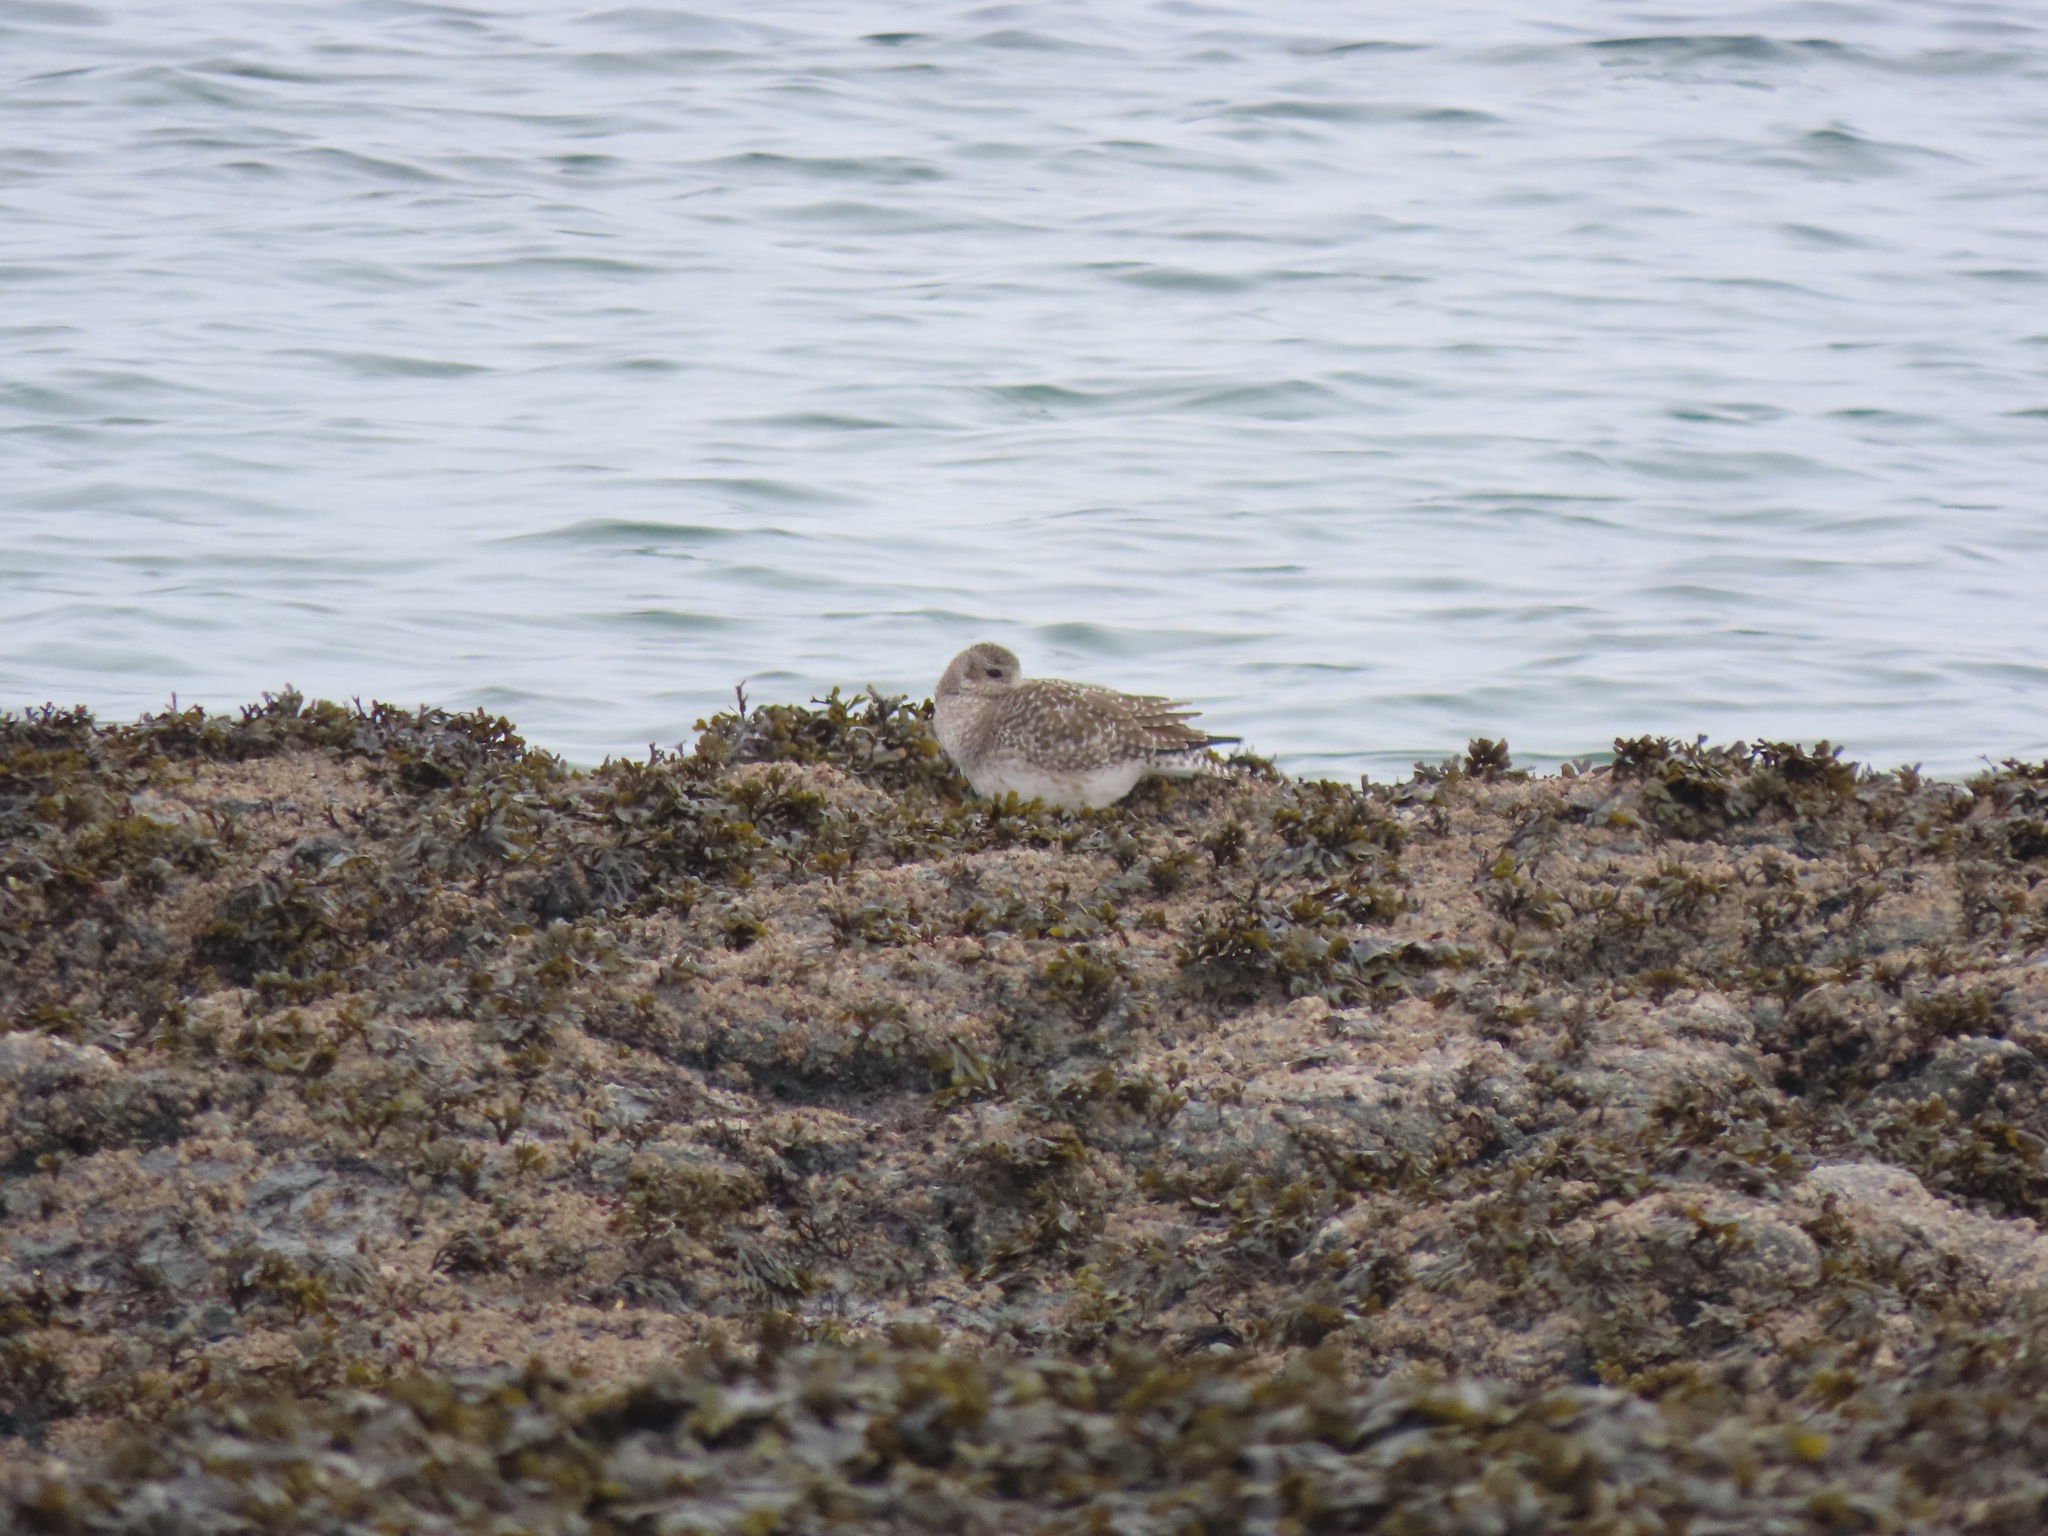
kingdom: Animalia
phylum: Chordata
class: Aves
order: Charadriiformes
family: Charadriidae
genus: Pluvialis
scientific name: Pluvialis squatarola
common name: Grey plover
